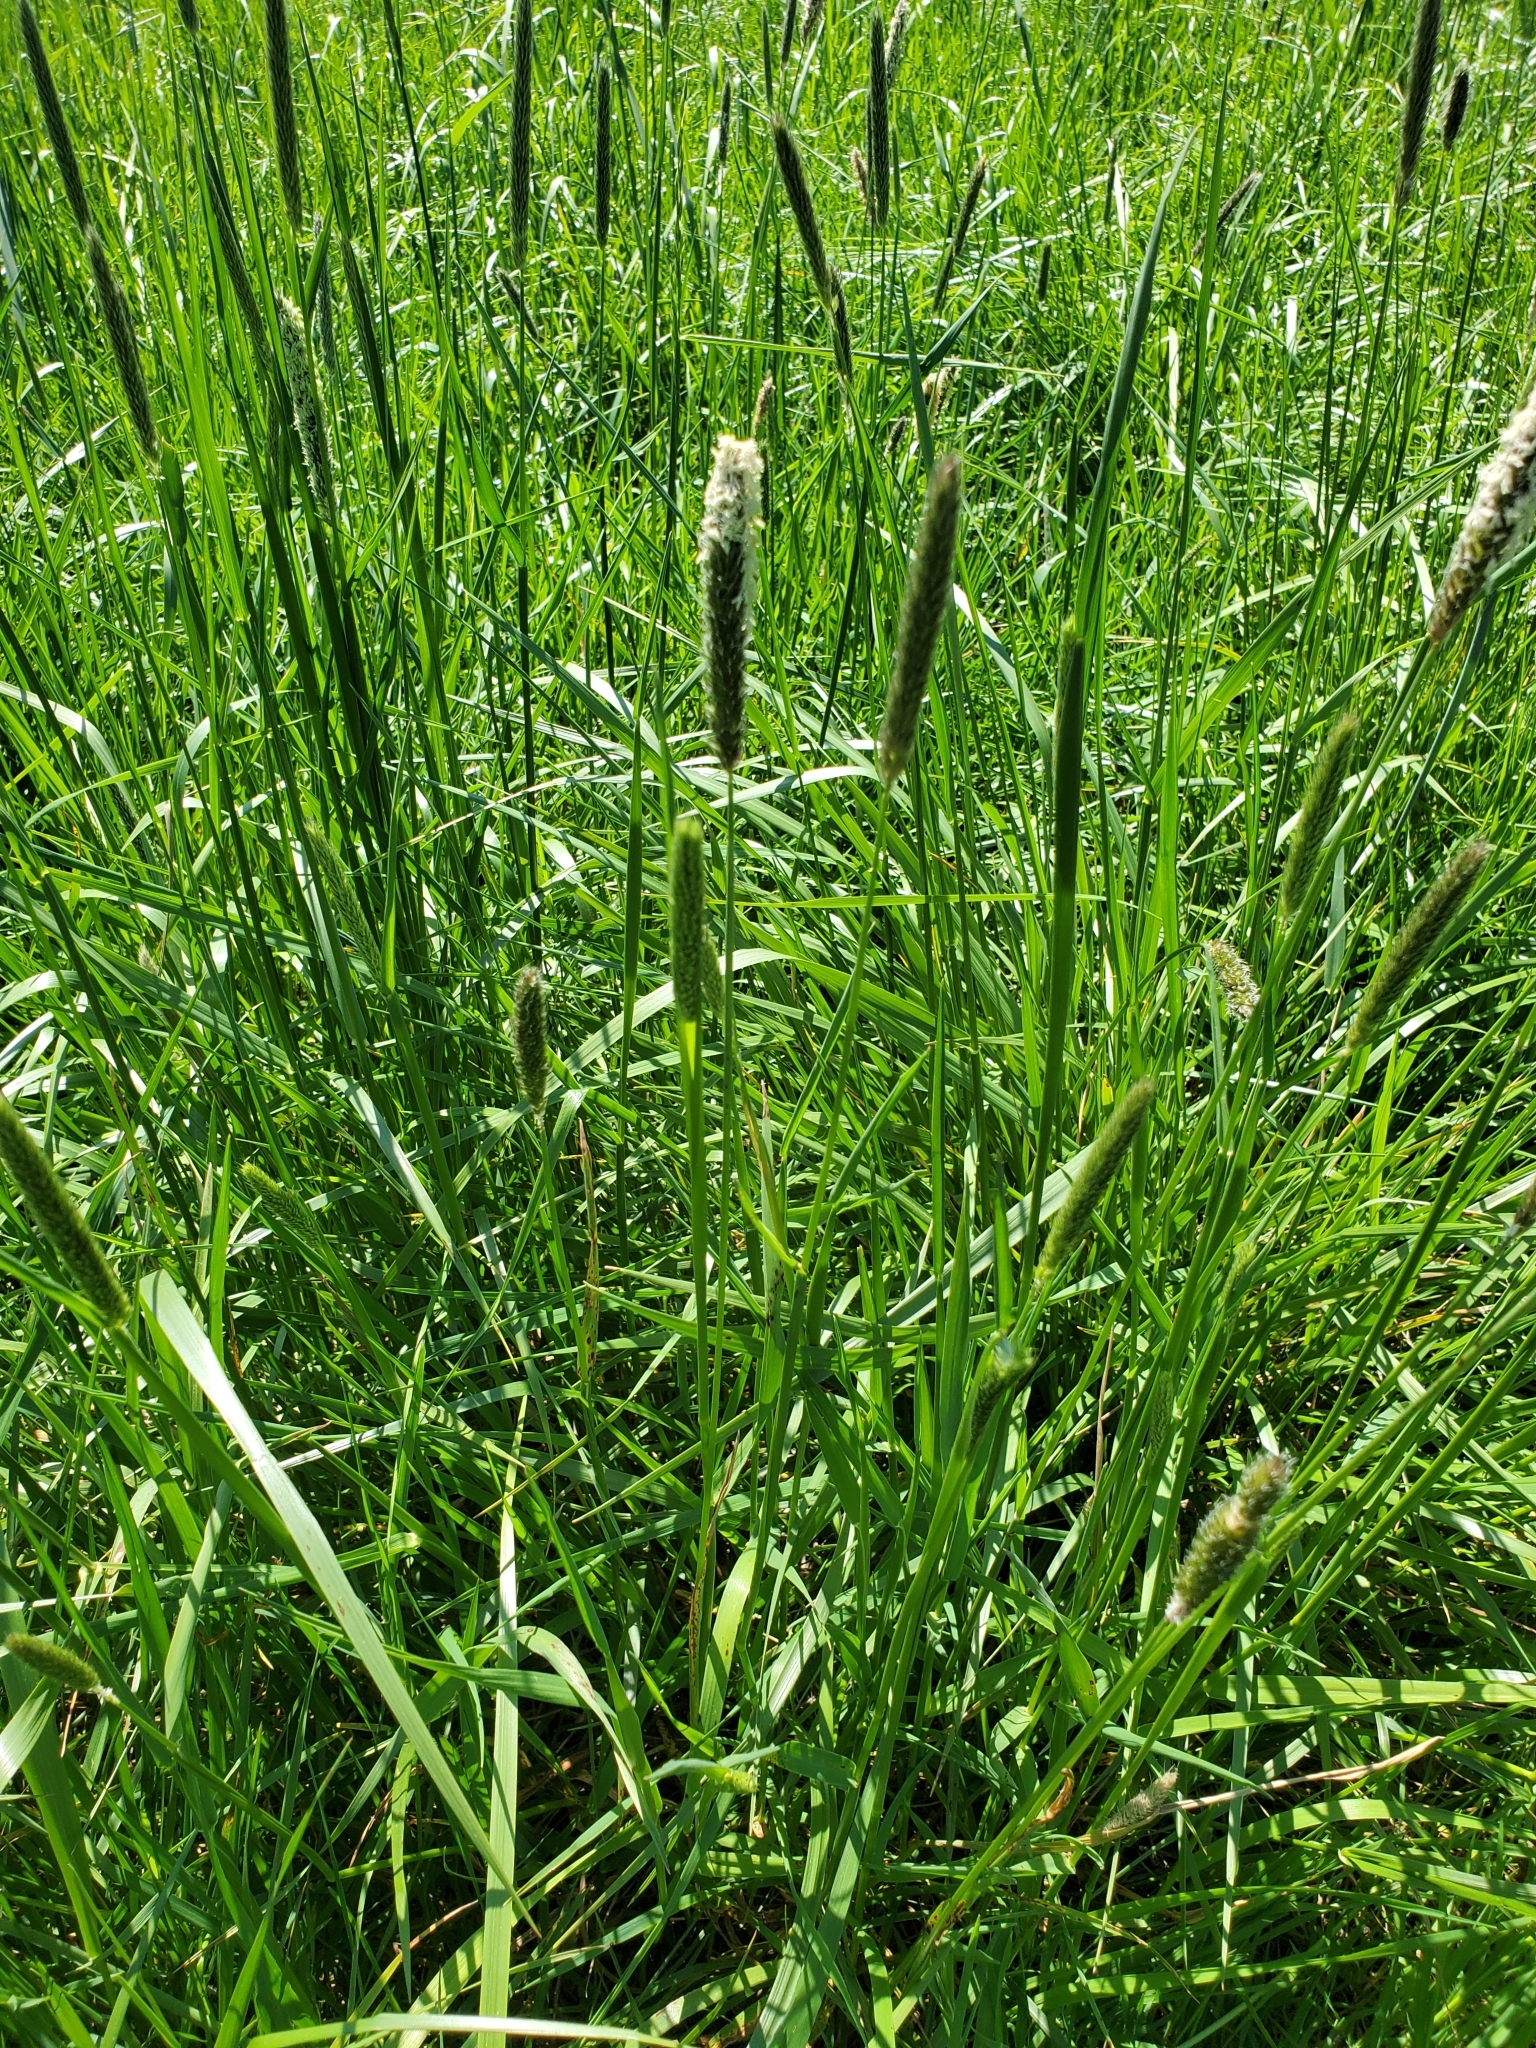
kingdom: Plantae
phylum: Tracheophyta
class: Liliopsida
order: Poales
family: Poaceae
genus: Alopecurus
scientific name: Alopecurus pratensis
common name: Meadow foxtail
